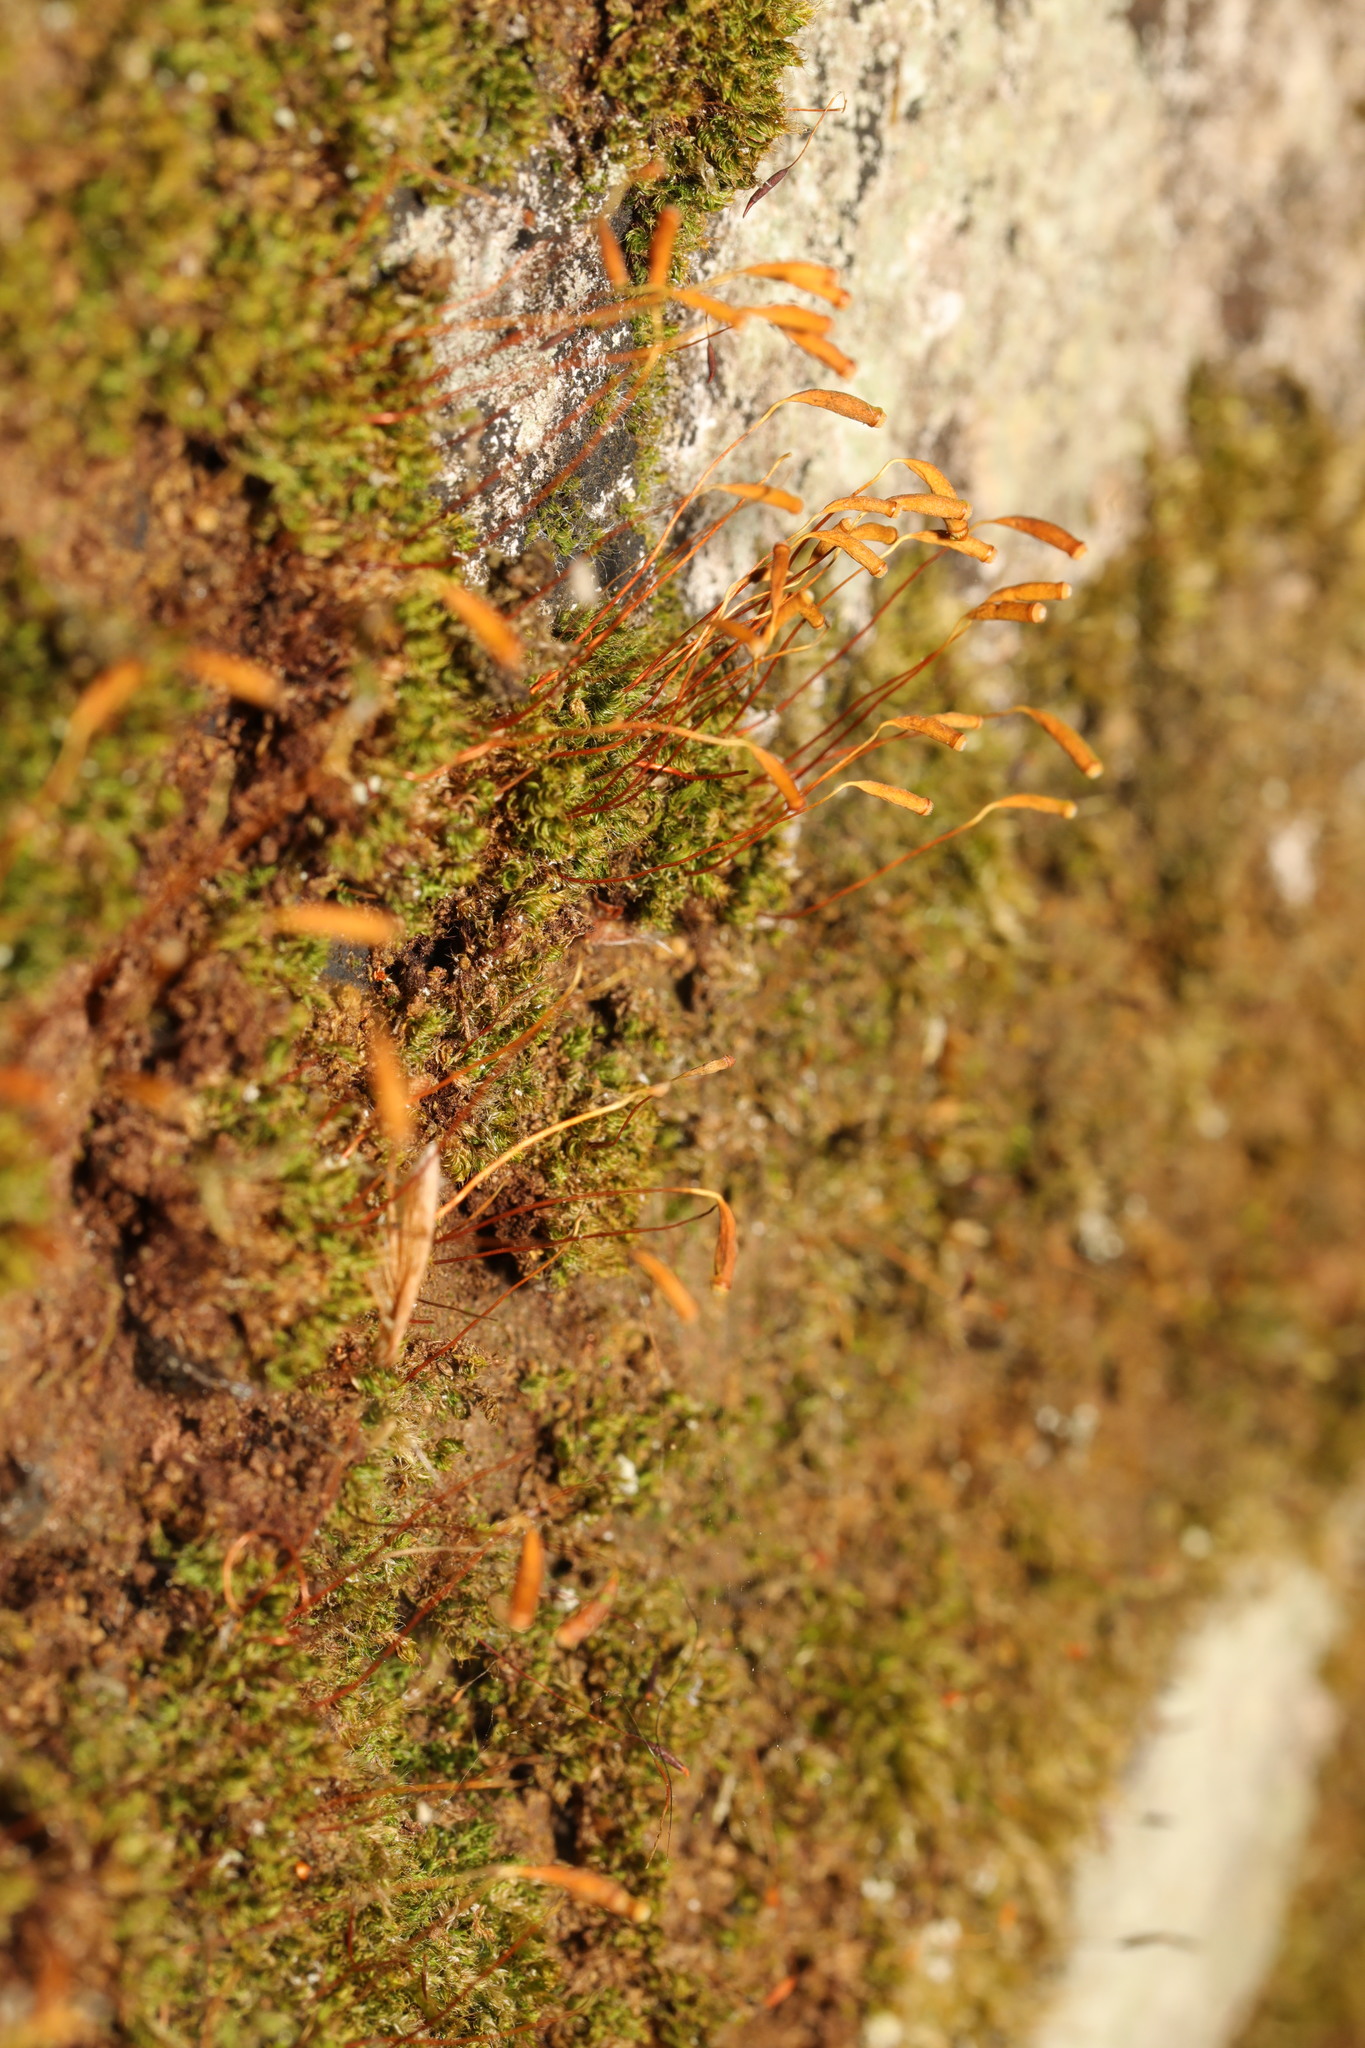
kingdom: Plantae
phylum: Bryophyta
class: Bryopsida
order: Pottiales
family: Pottiaceae
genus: Tortula
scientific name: Tortula muralis
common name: Wall screw-moss
